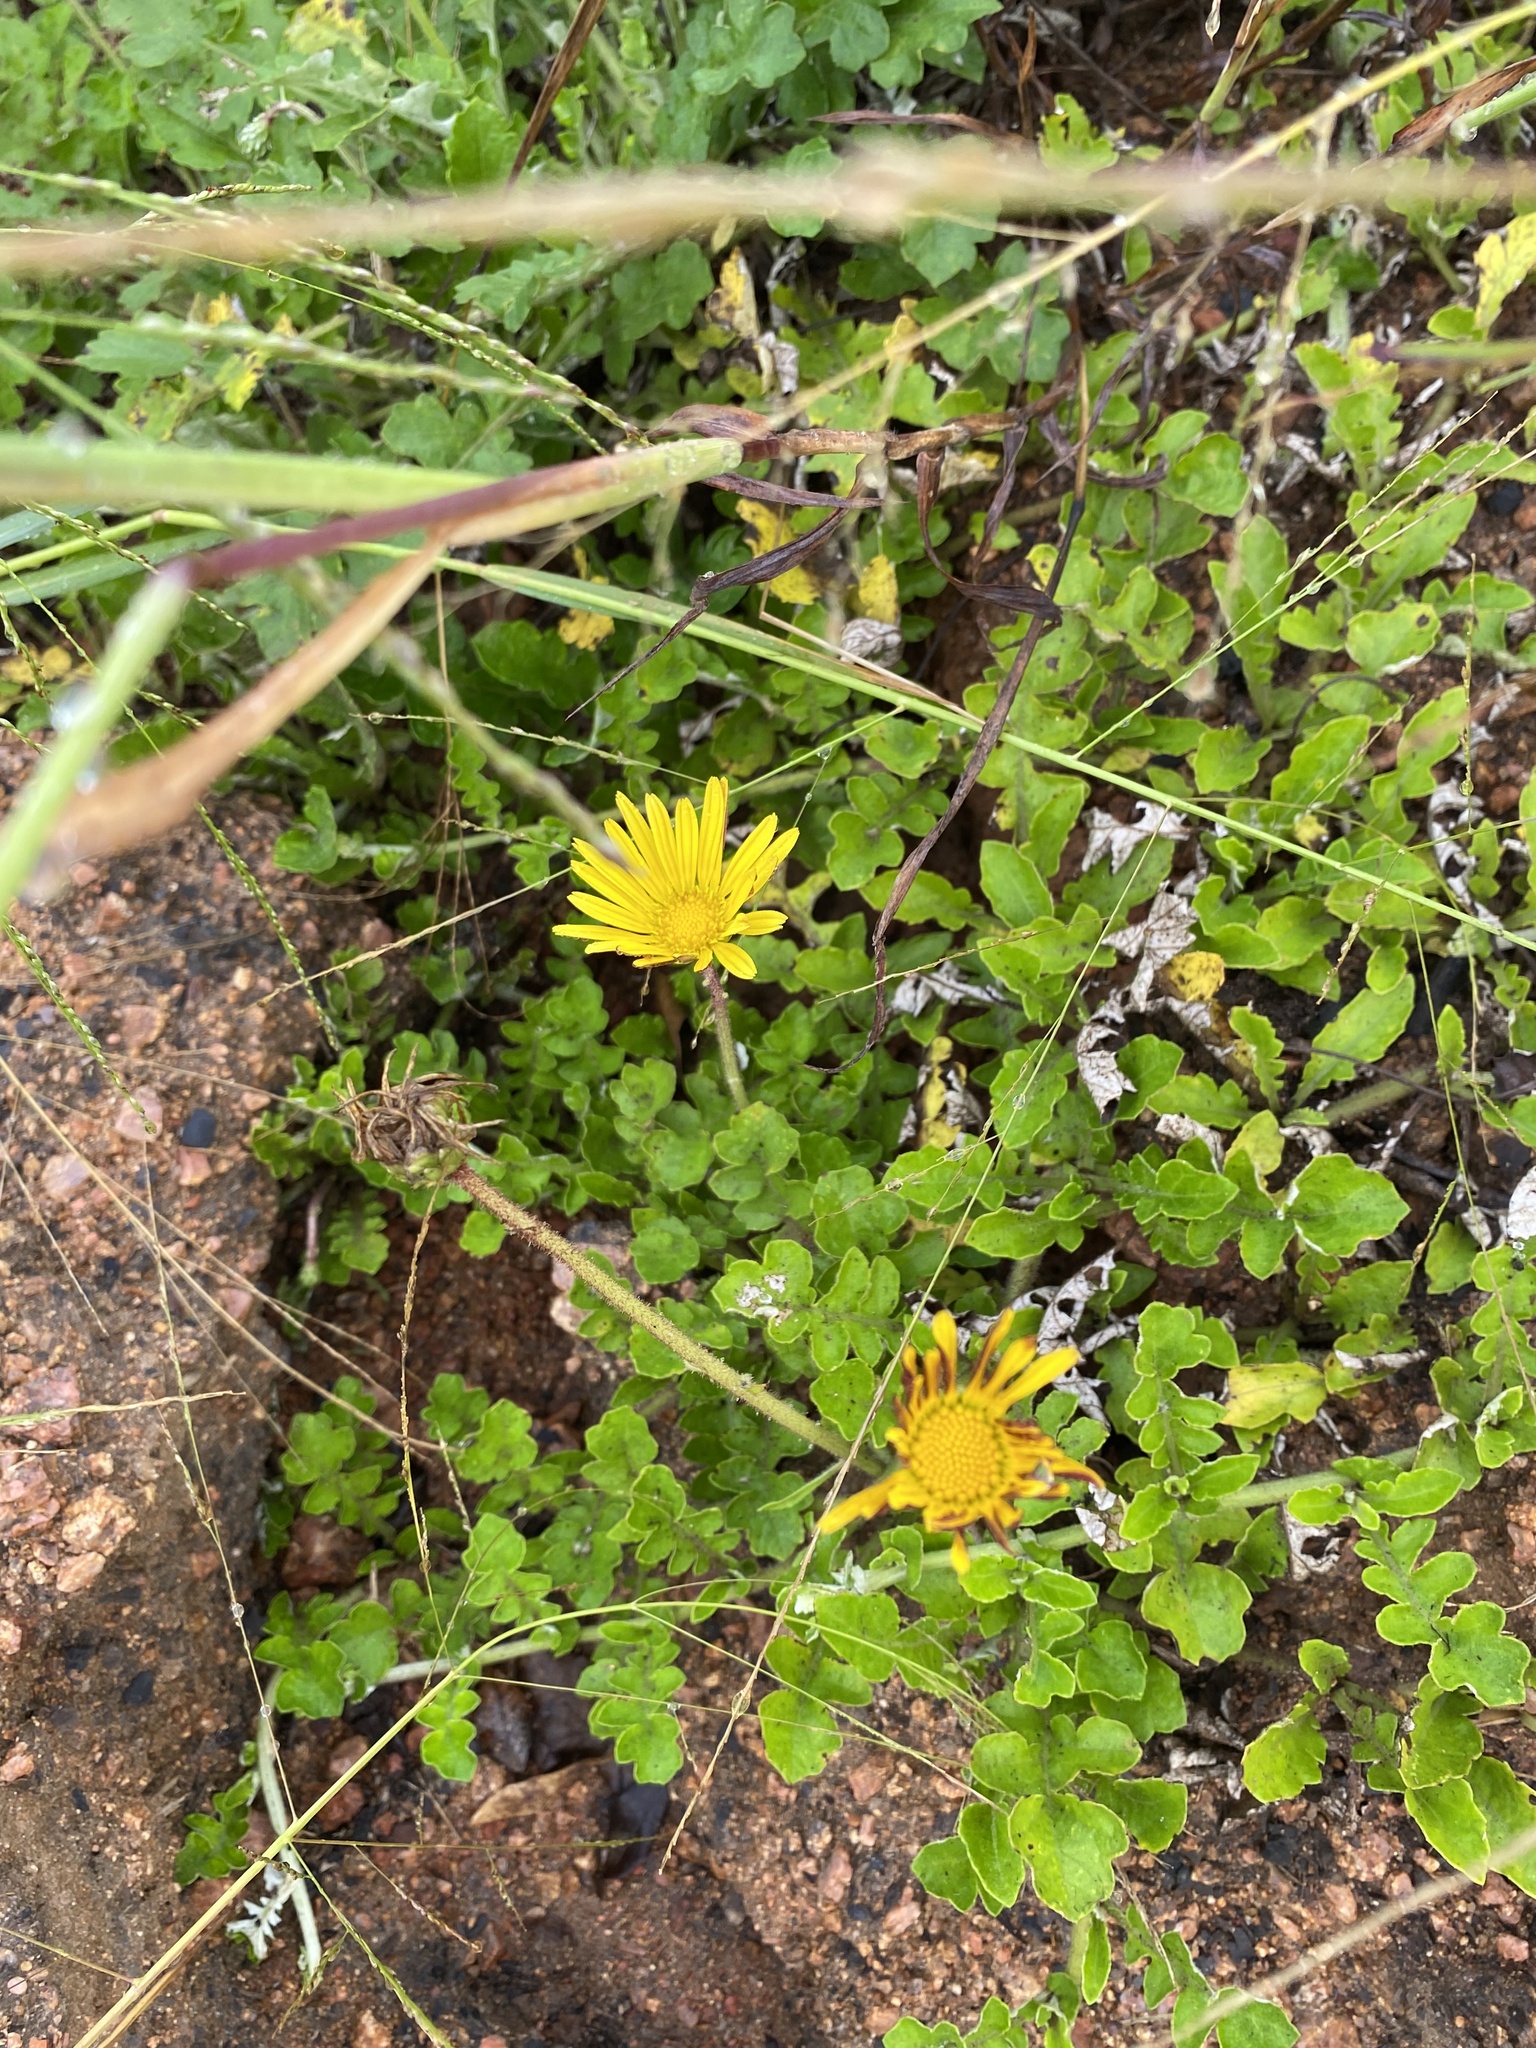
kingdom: Plantae
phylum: Tracheophyta
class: Magnoliopsida
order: Asterales
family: Asteraceae
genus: Arctotheca
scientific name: Arctotheca prostrata
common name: Capeweed
